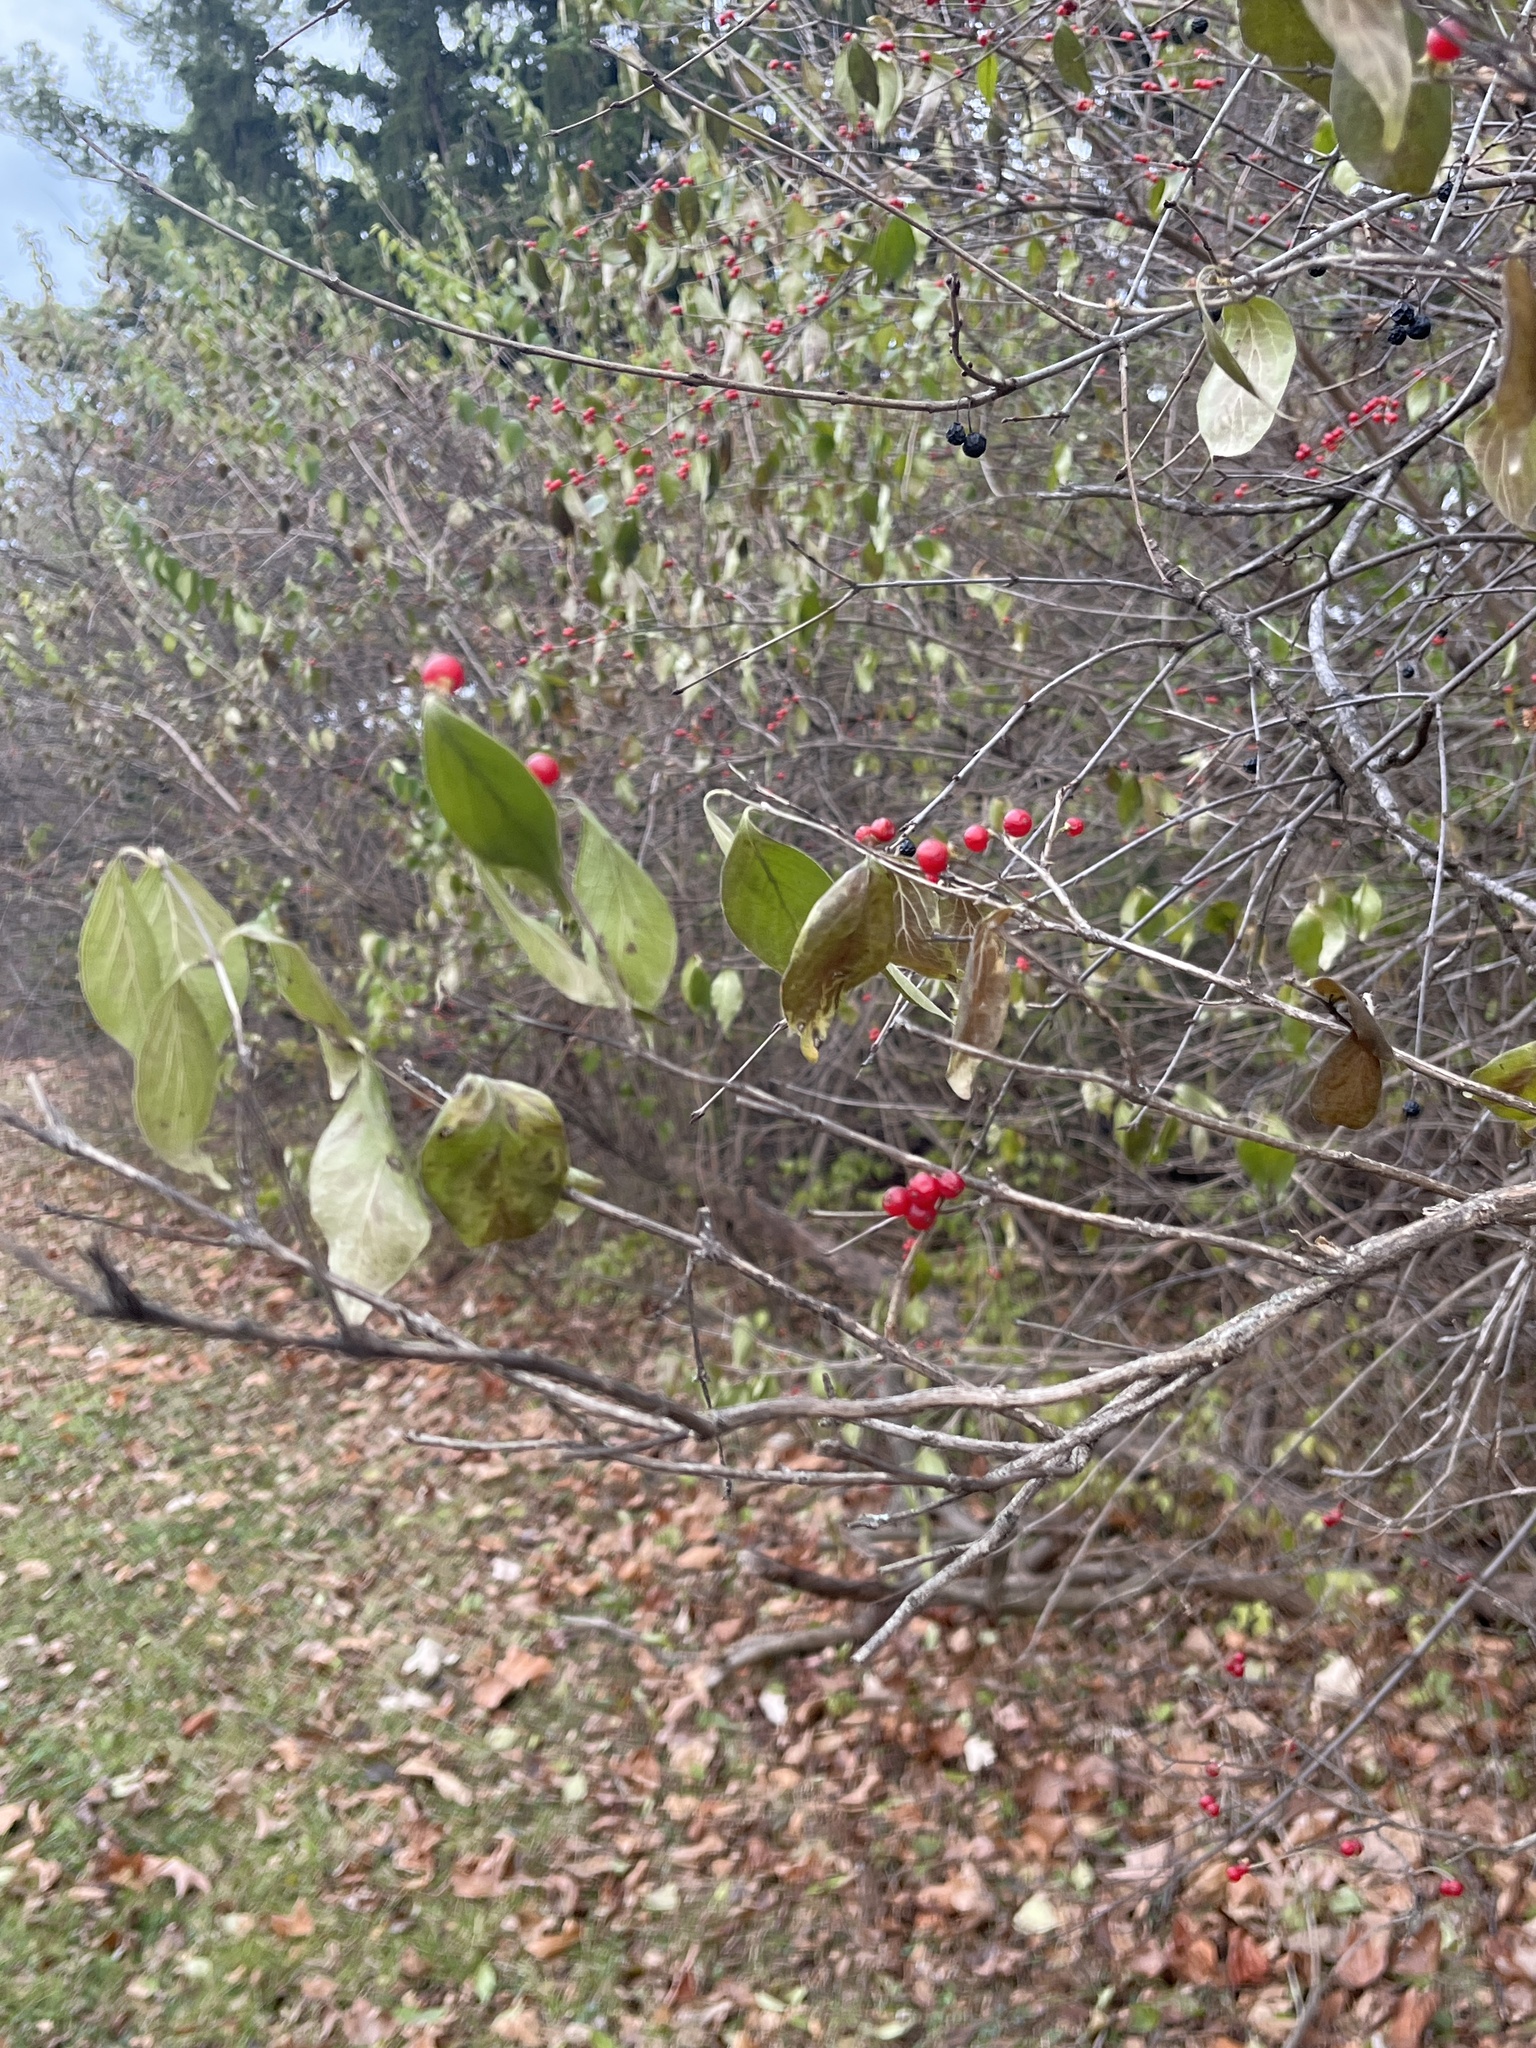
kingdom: Plantae
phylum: Tracheophyta
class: Magnoliopsida
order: Dipsacales
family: Caprifoliaceae
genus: Lonicera
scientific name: Lonicera maackii
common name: Amur honeysuckle
